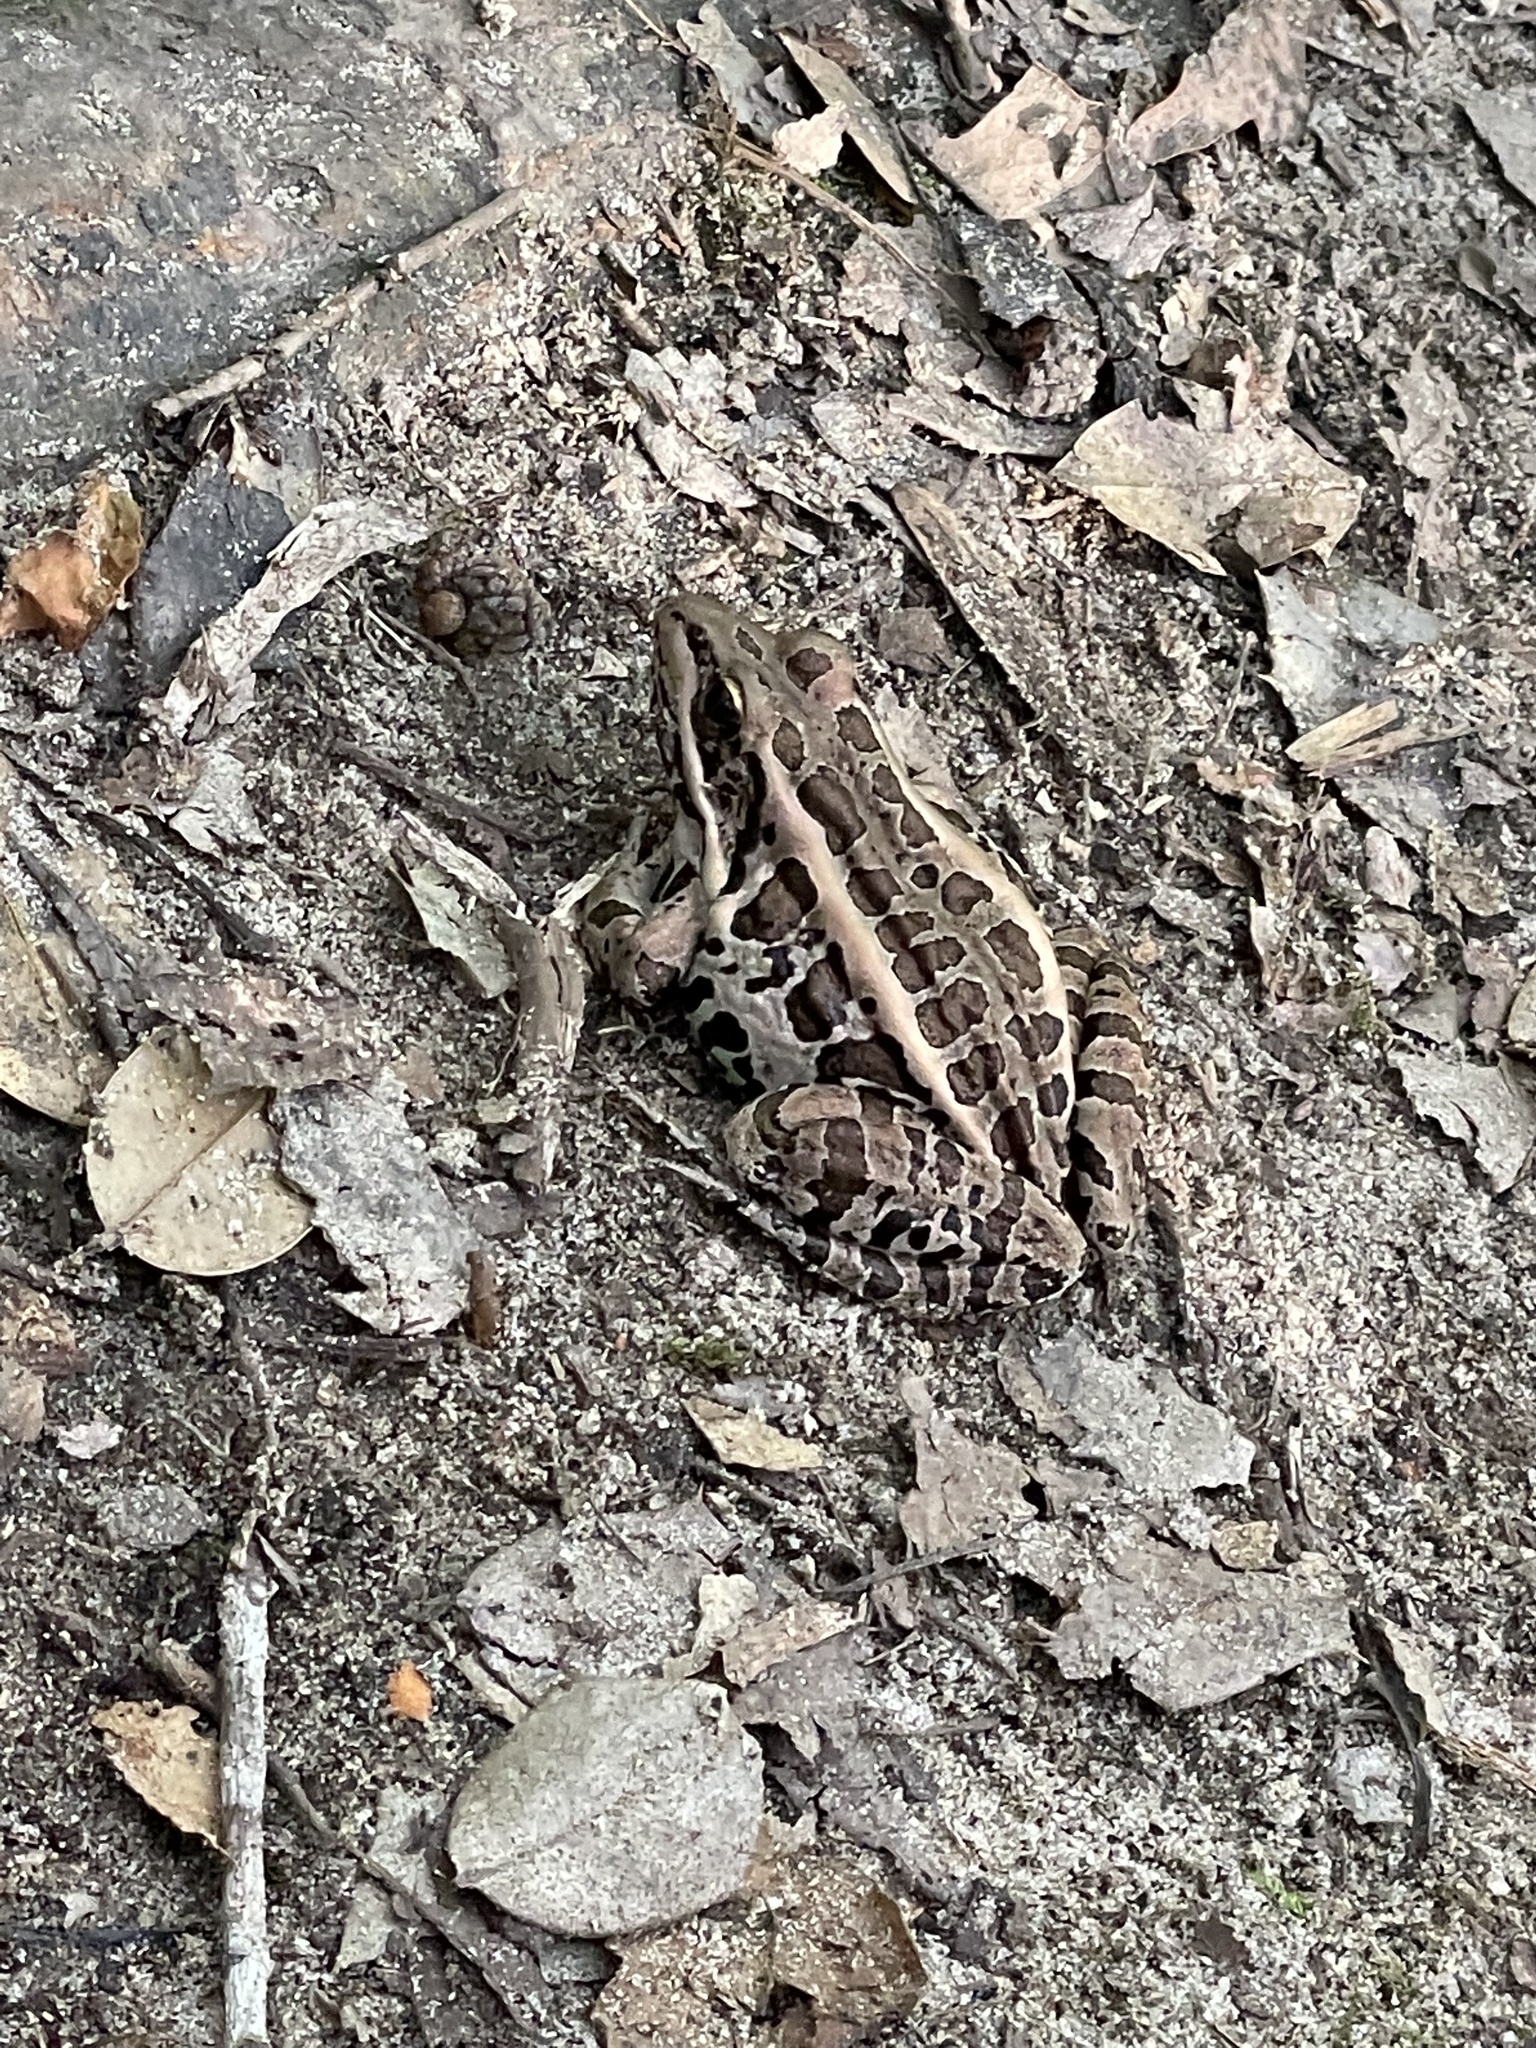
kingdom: Animalia
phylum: Chordata
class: Amphibia
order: Anura
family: Ranidae
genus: Lithobates
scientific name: Lithobates palustris
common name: Pickerel frog
